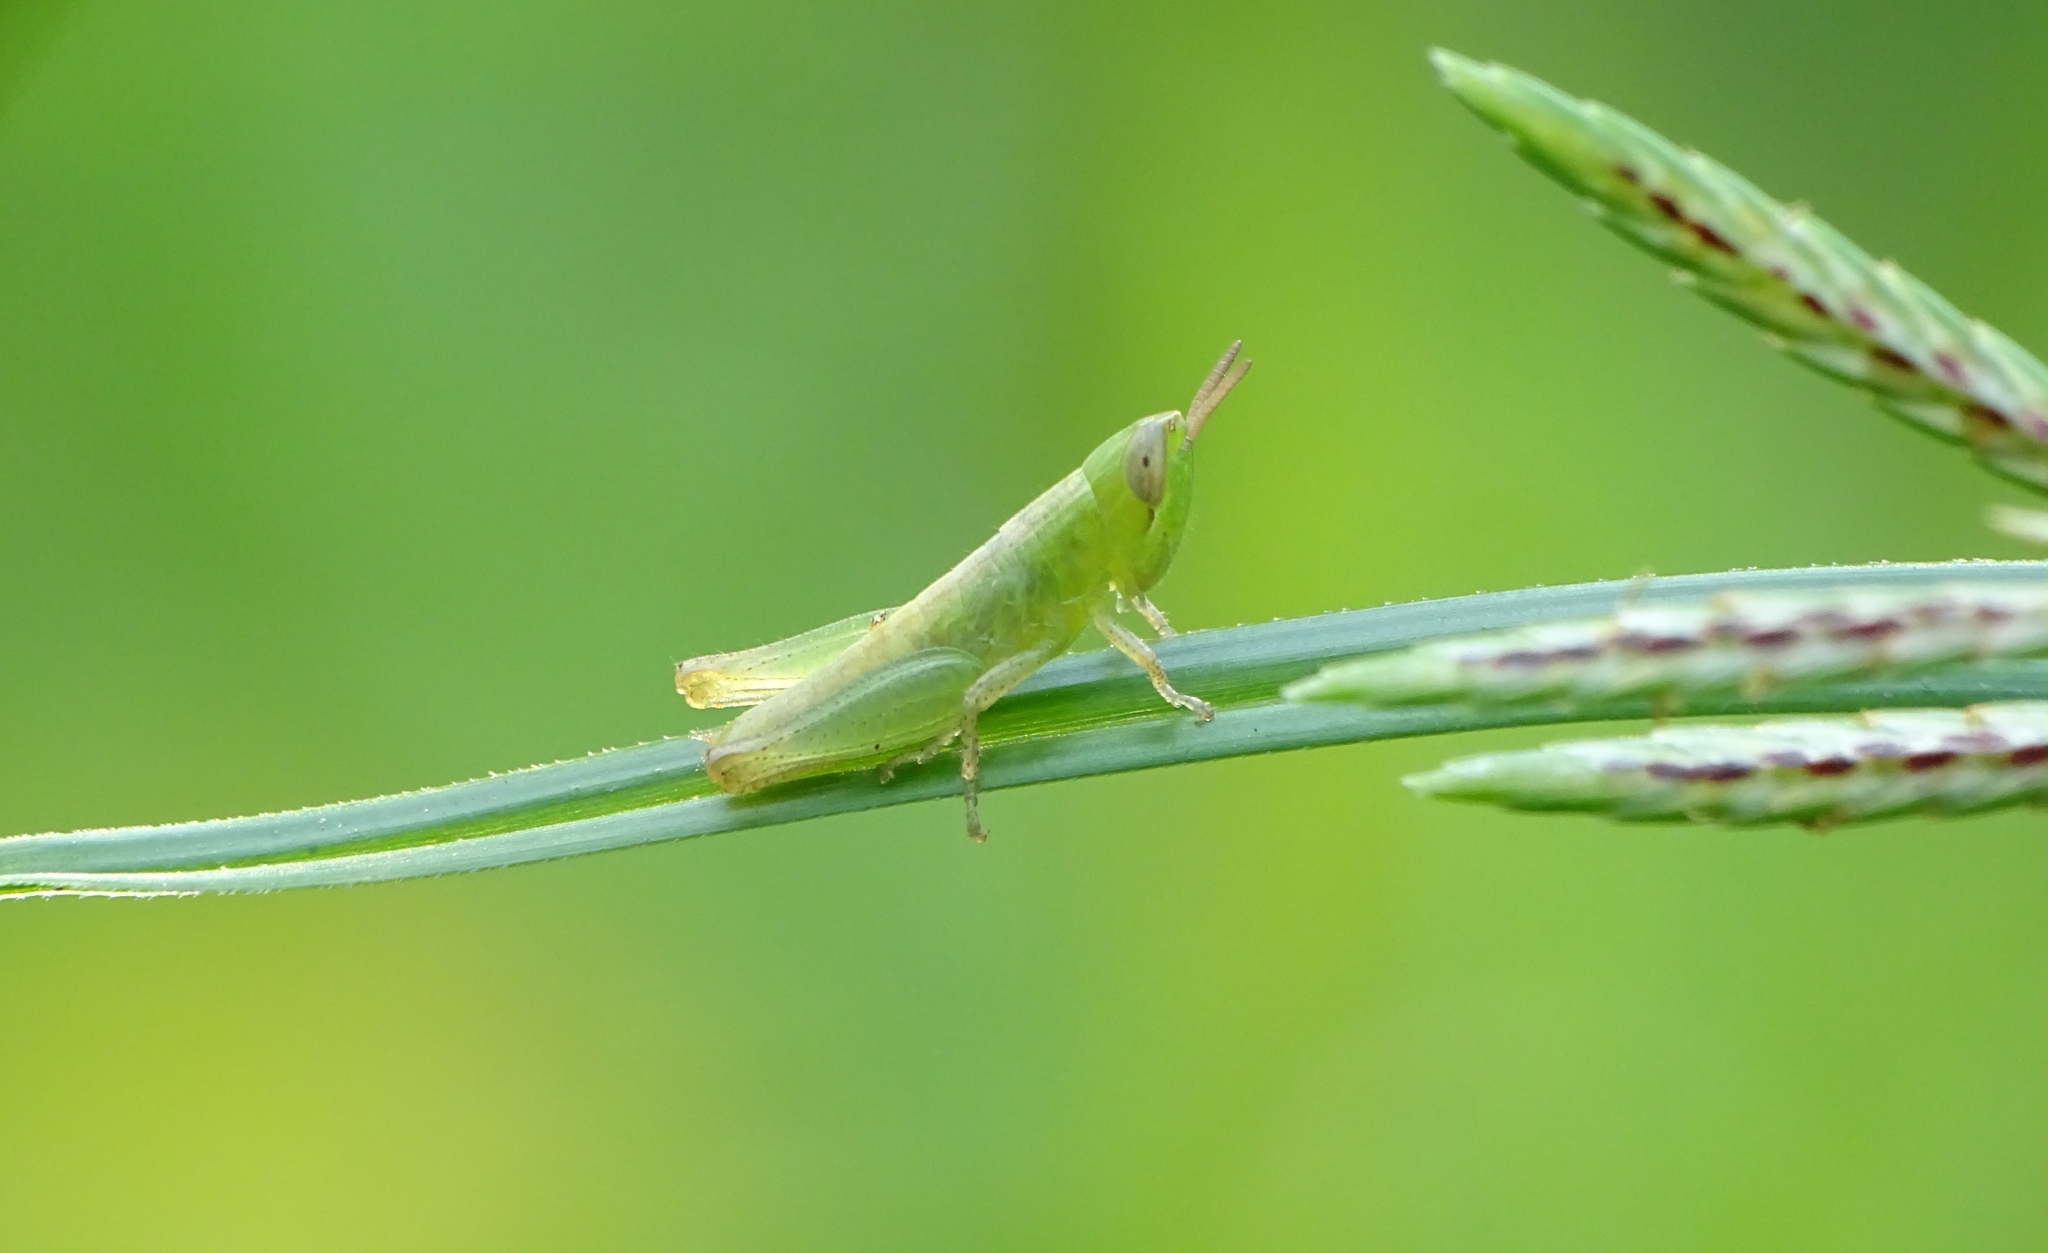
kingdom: Animalia
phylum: Arthropoda
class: Insecta
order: Orthoptera
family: Acrididae
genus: Spathosternum
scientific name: Spathosternum prasiniferum
